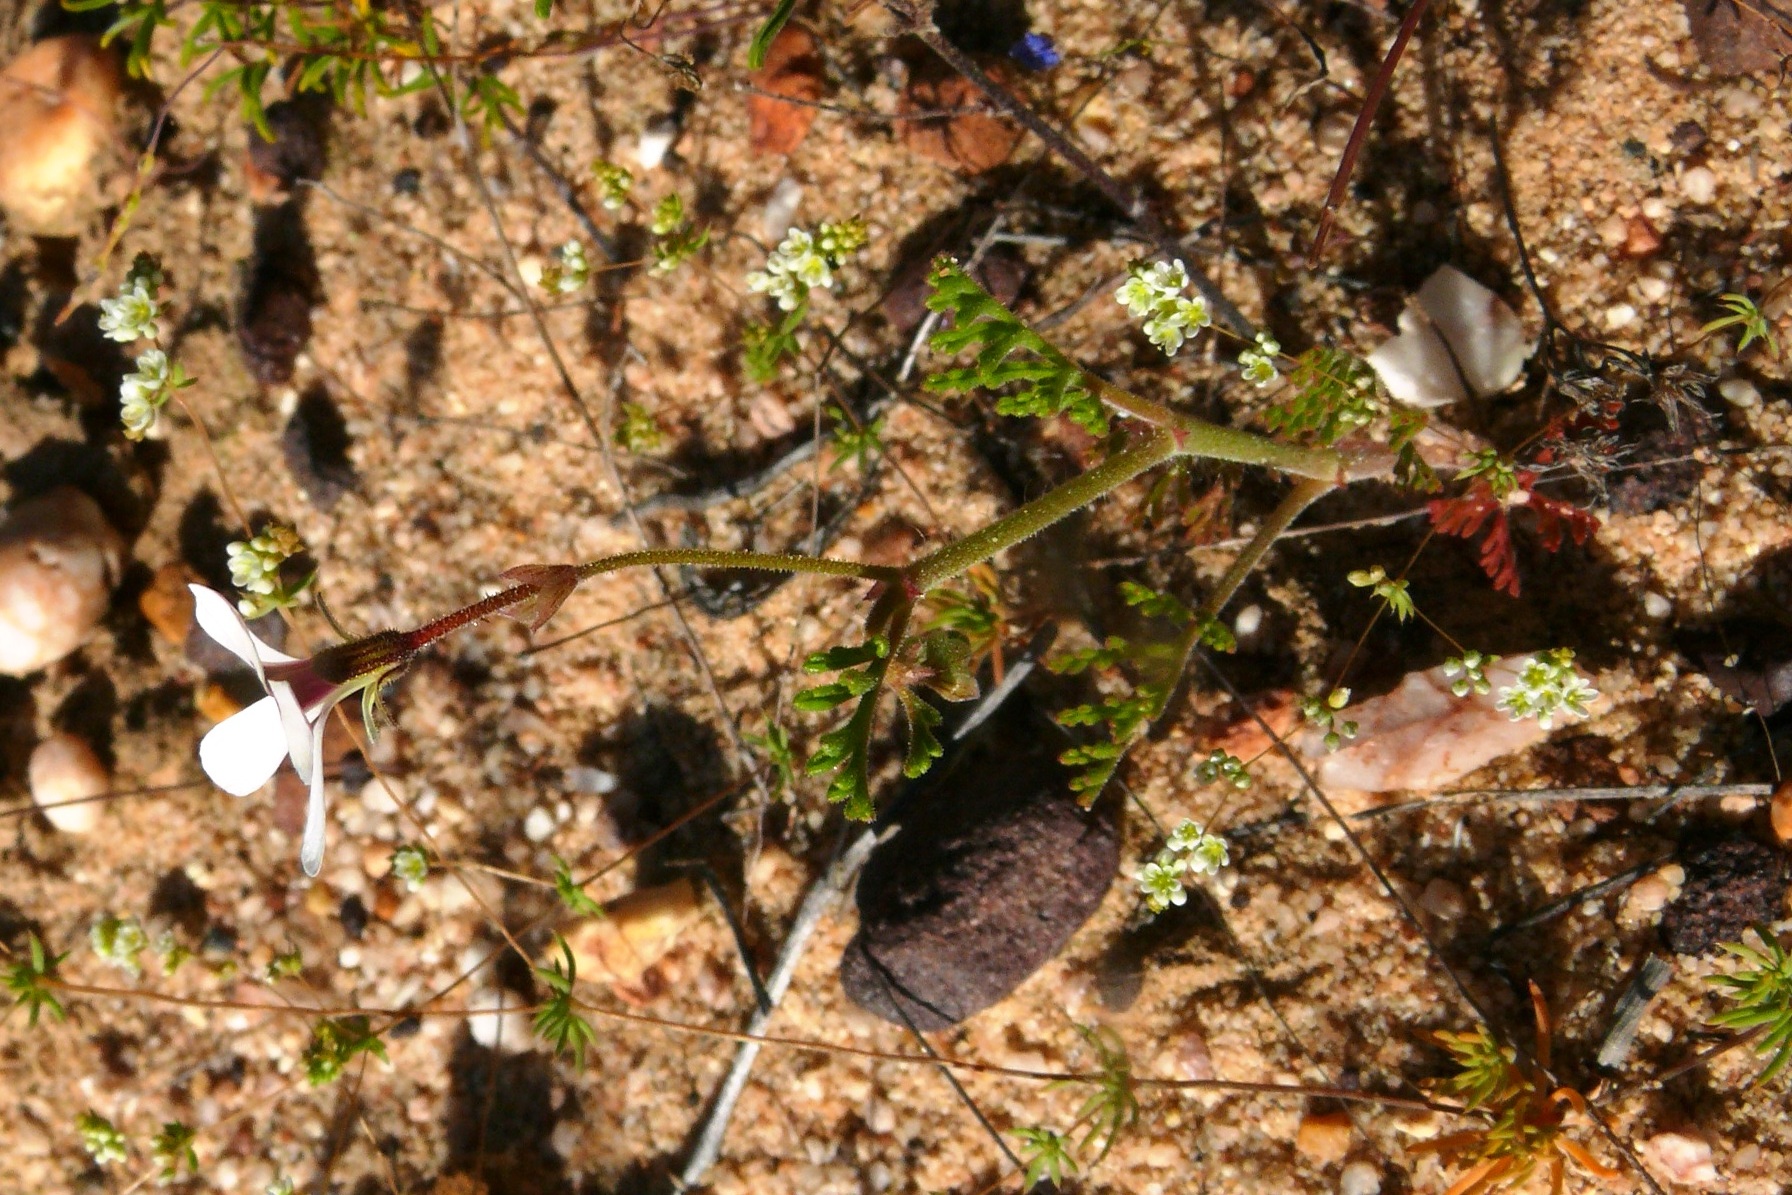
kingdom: Plantae
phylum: Tracheophyta
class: Magnoliopsida
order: Geraniales
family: Geraniaceae
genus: Pelargonium
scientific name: Pelargonium senecioides
